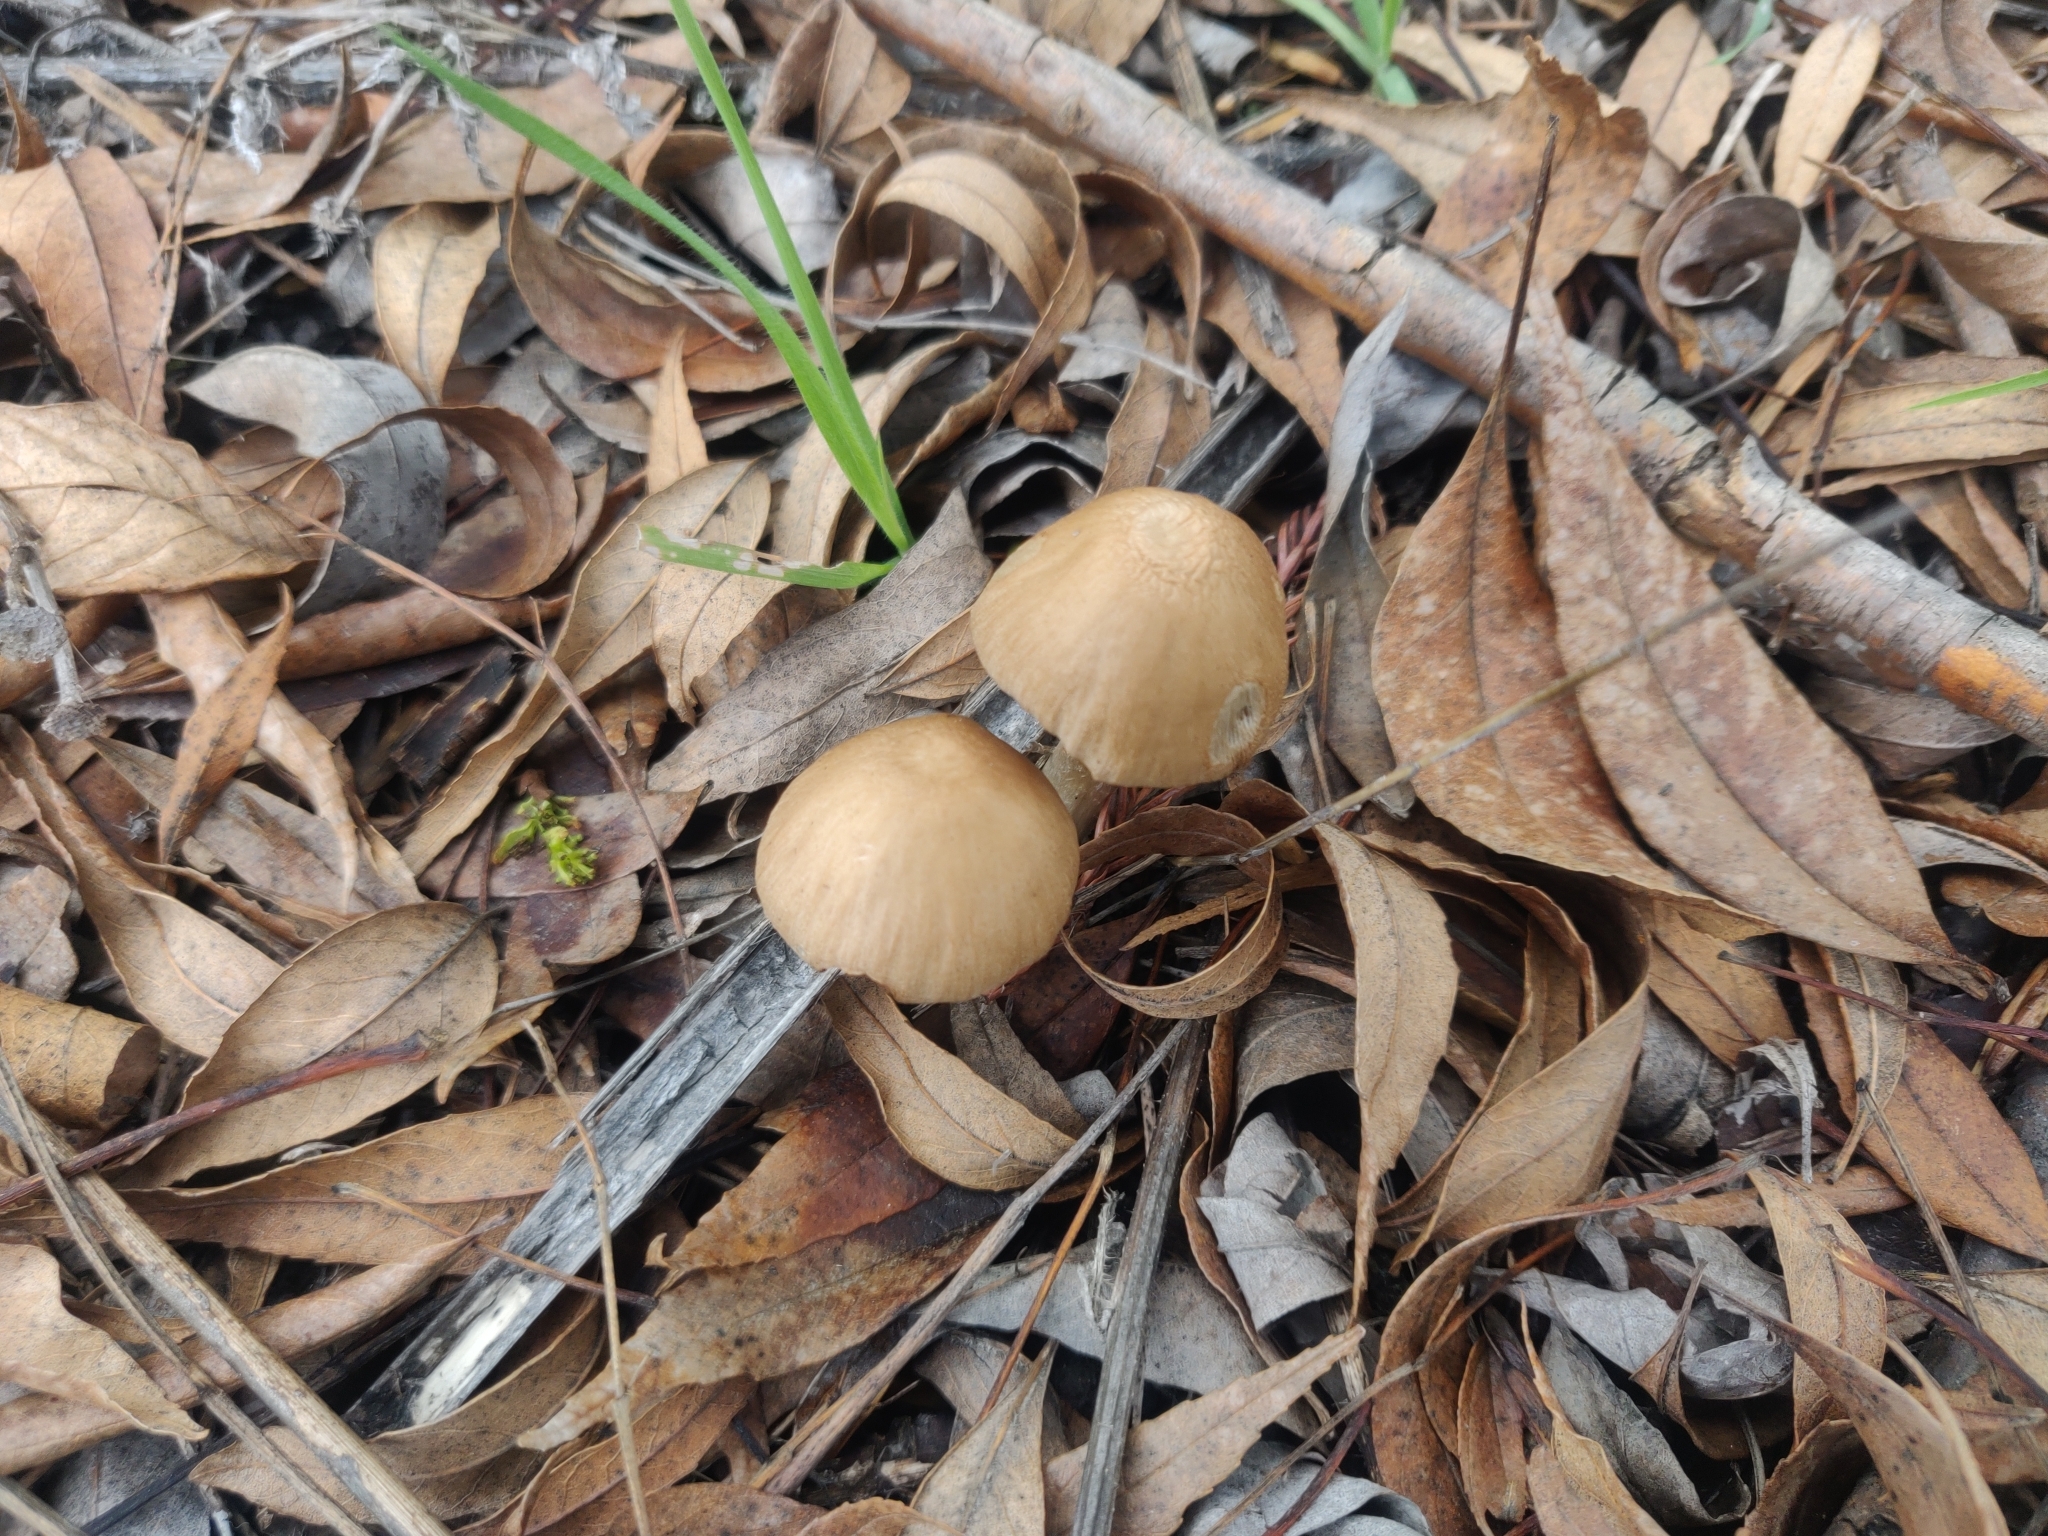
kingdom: Fungi
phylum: Basidiomycota
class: Agaricomycetes
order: Agaricales
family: Psathyrellaceae
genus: Candolleomyces
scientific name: Candolleomyces candolleanus
